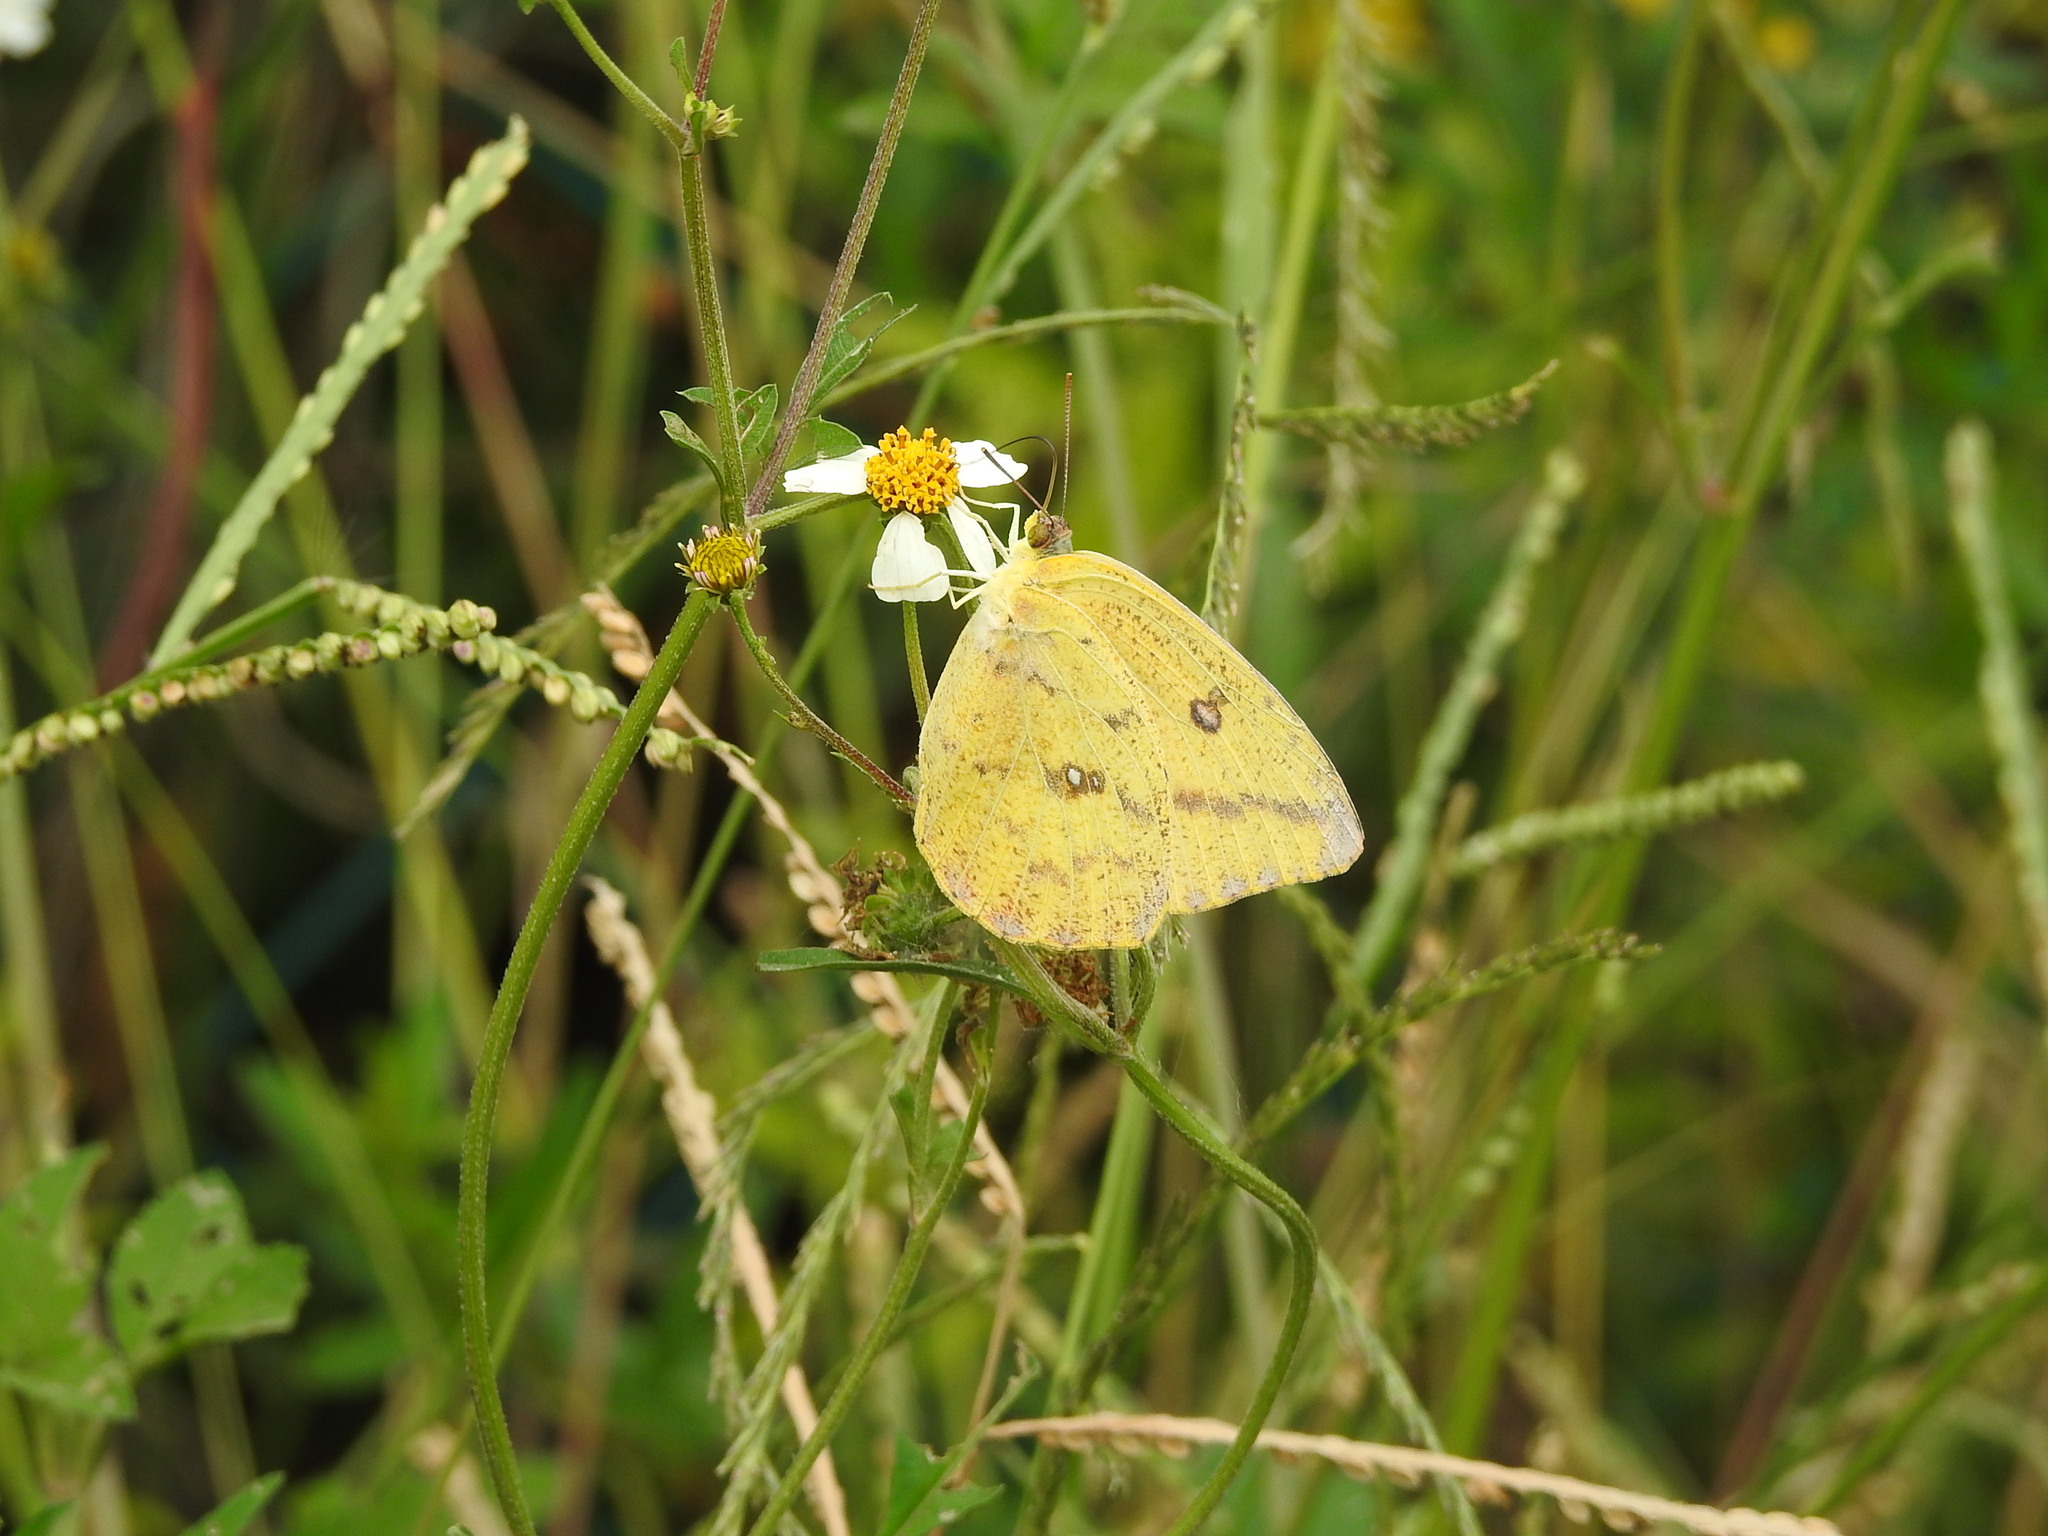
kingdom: Animalia
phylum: Arthropoda
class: Insecta
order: Lepidoptera
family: Pieridae
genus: Phoebis
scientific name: Phoebis agarithe
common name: Large orange sulphur
